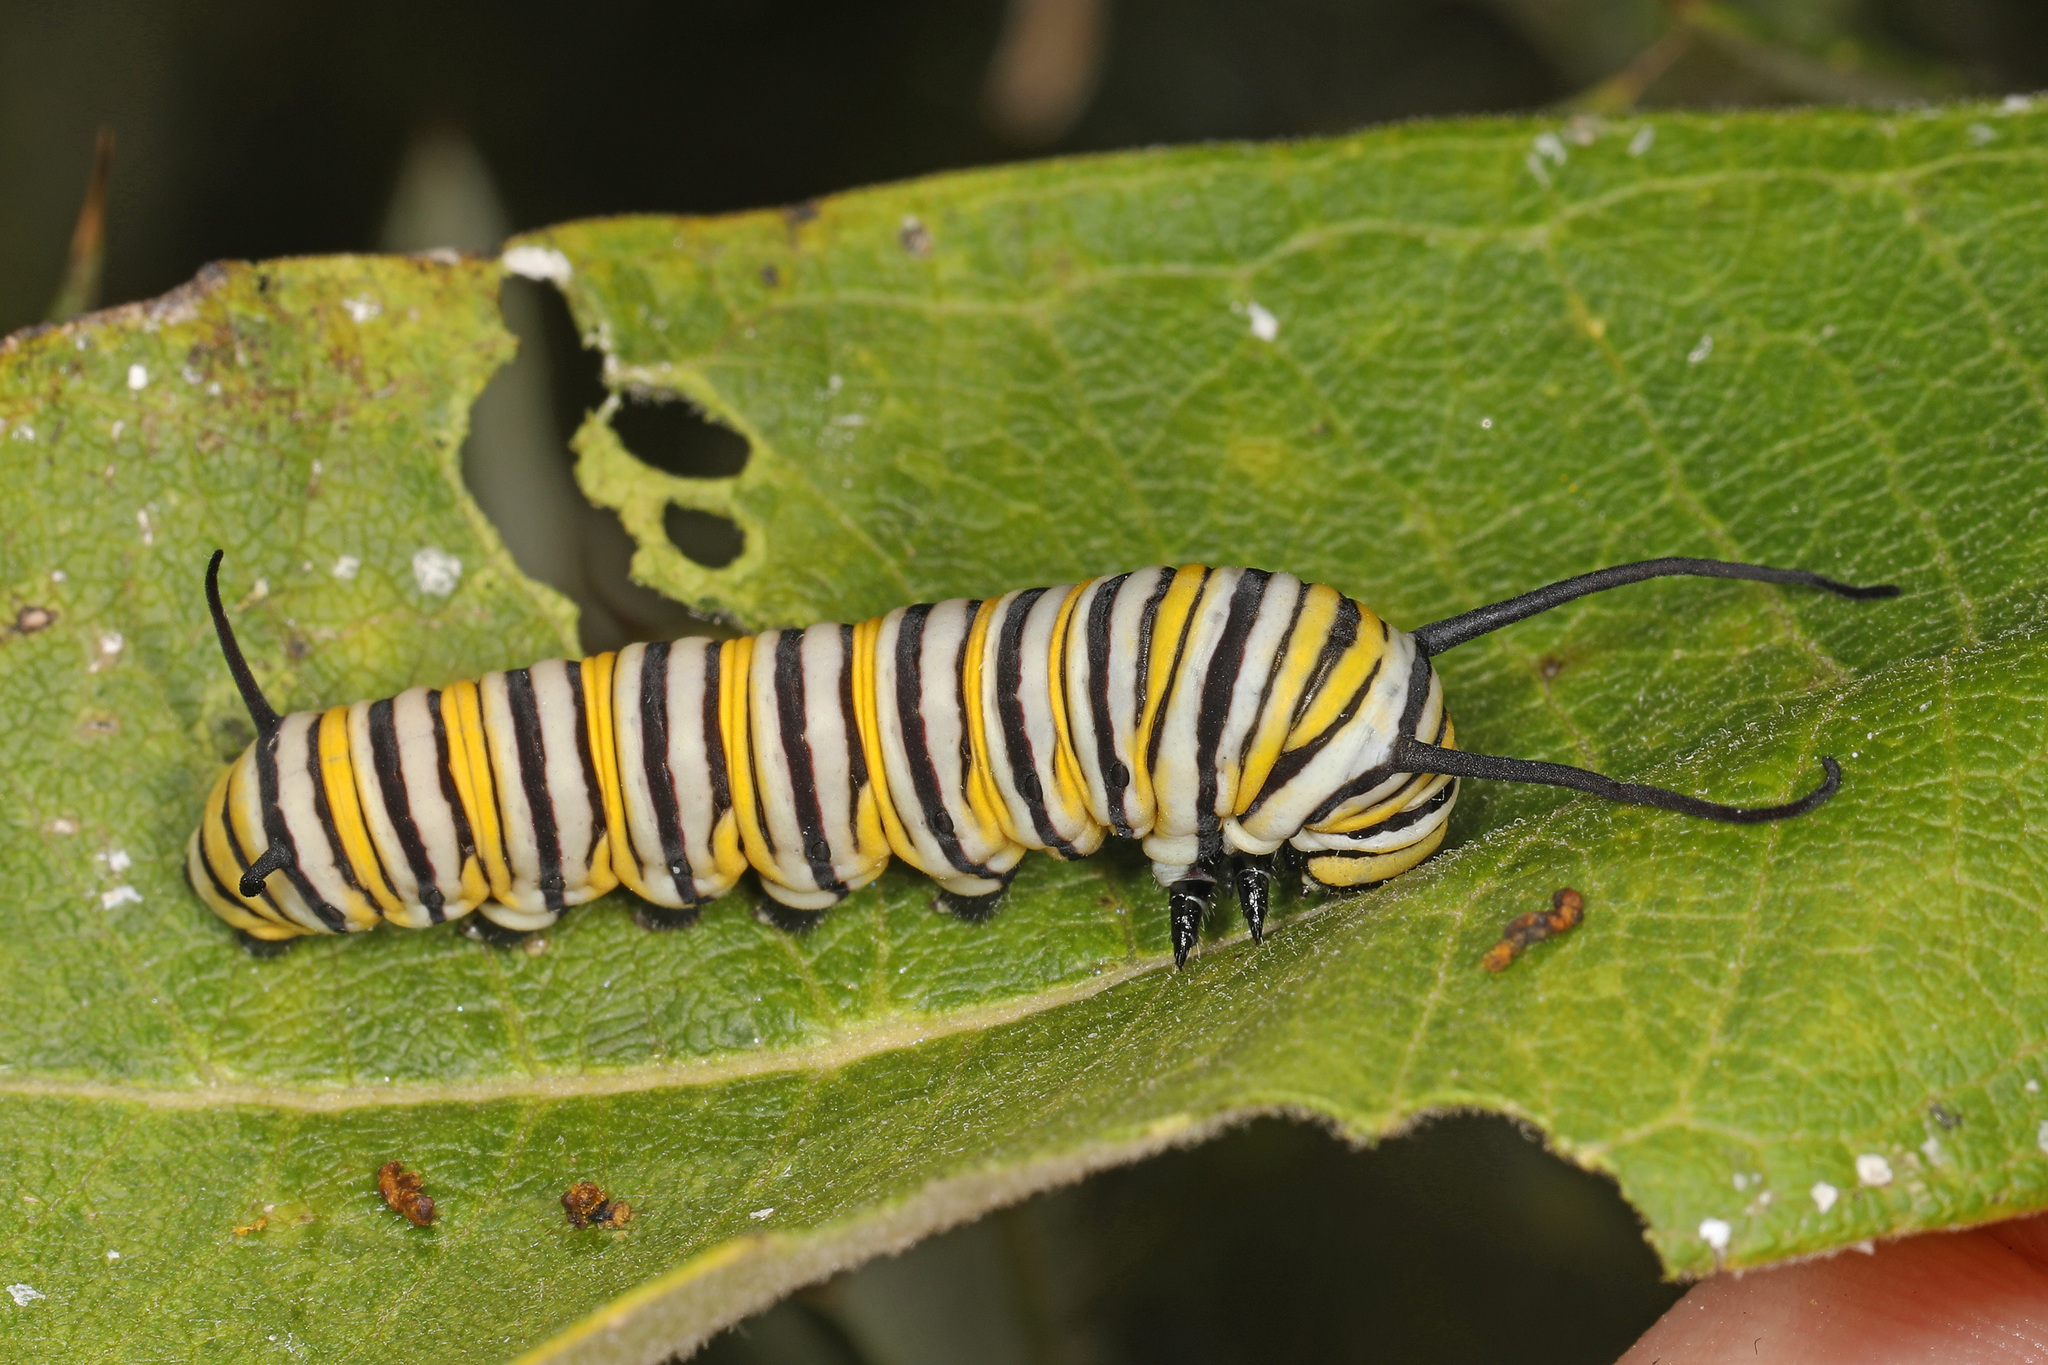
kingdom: Animalia
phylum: Arthropoda
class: Insecta
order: Lepidoptera
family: Nymphalidae
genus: Danaus
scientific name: Danaus plexippus
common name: Monarch
